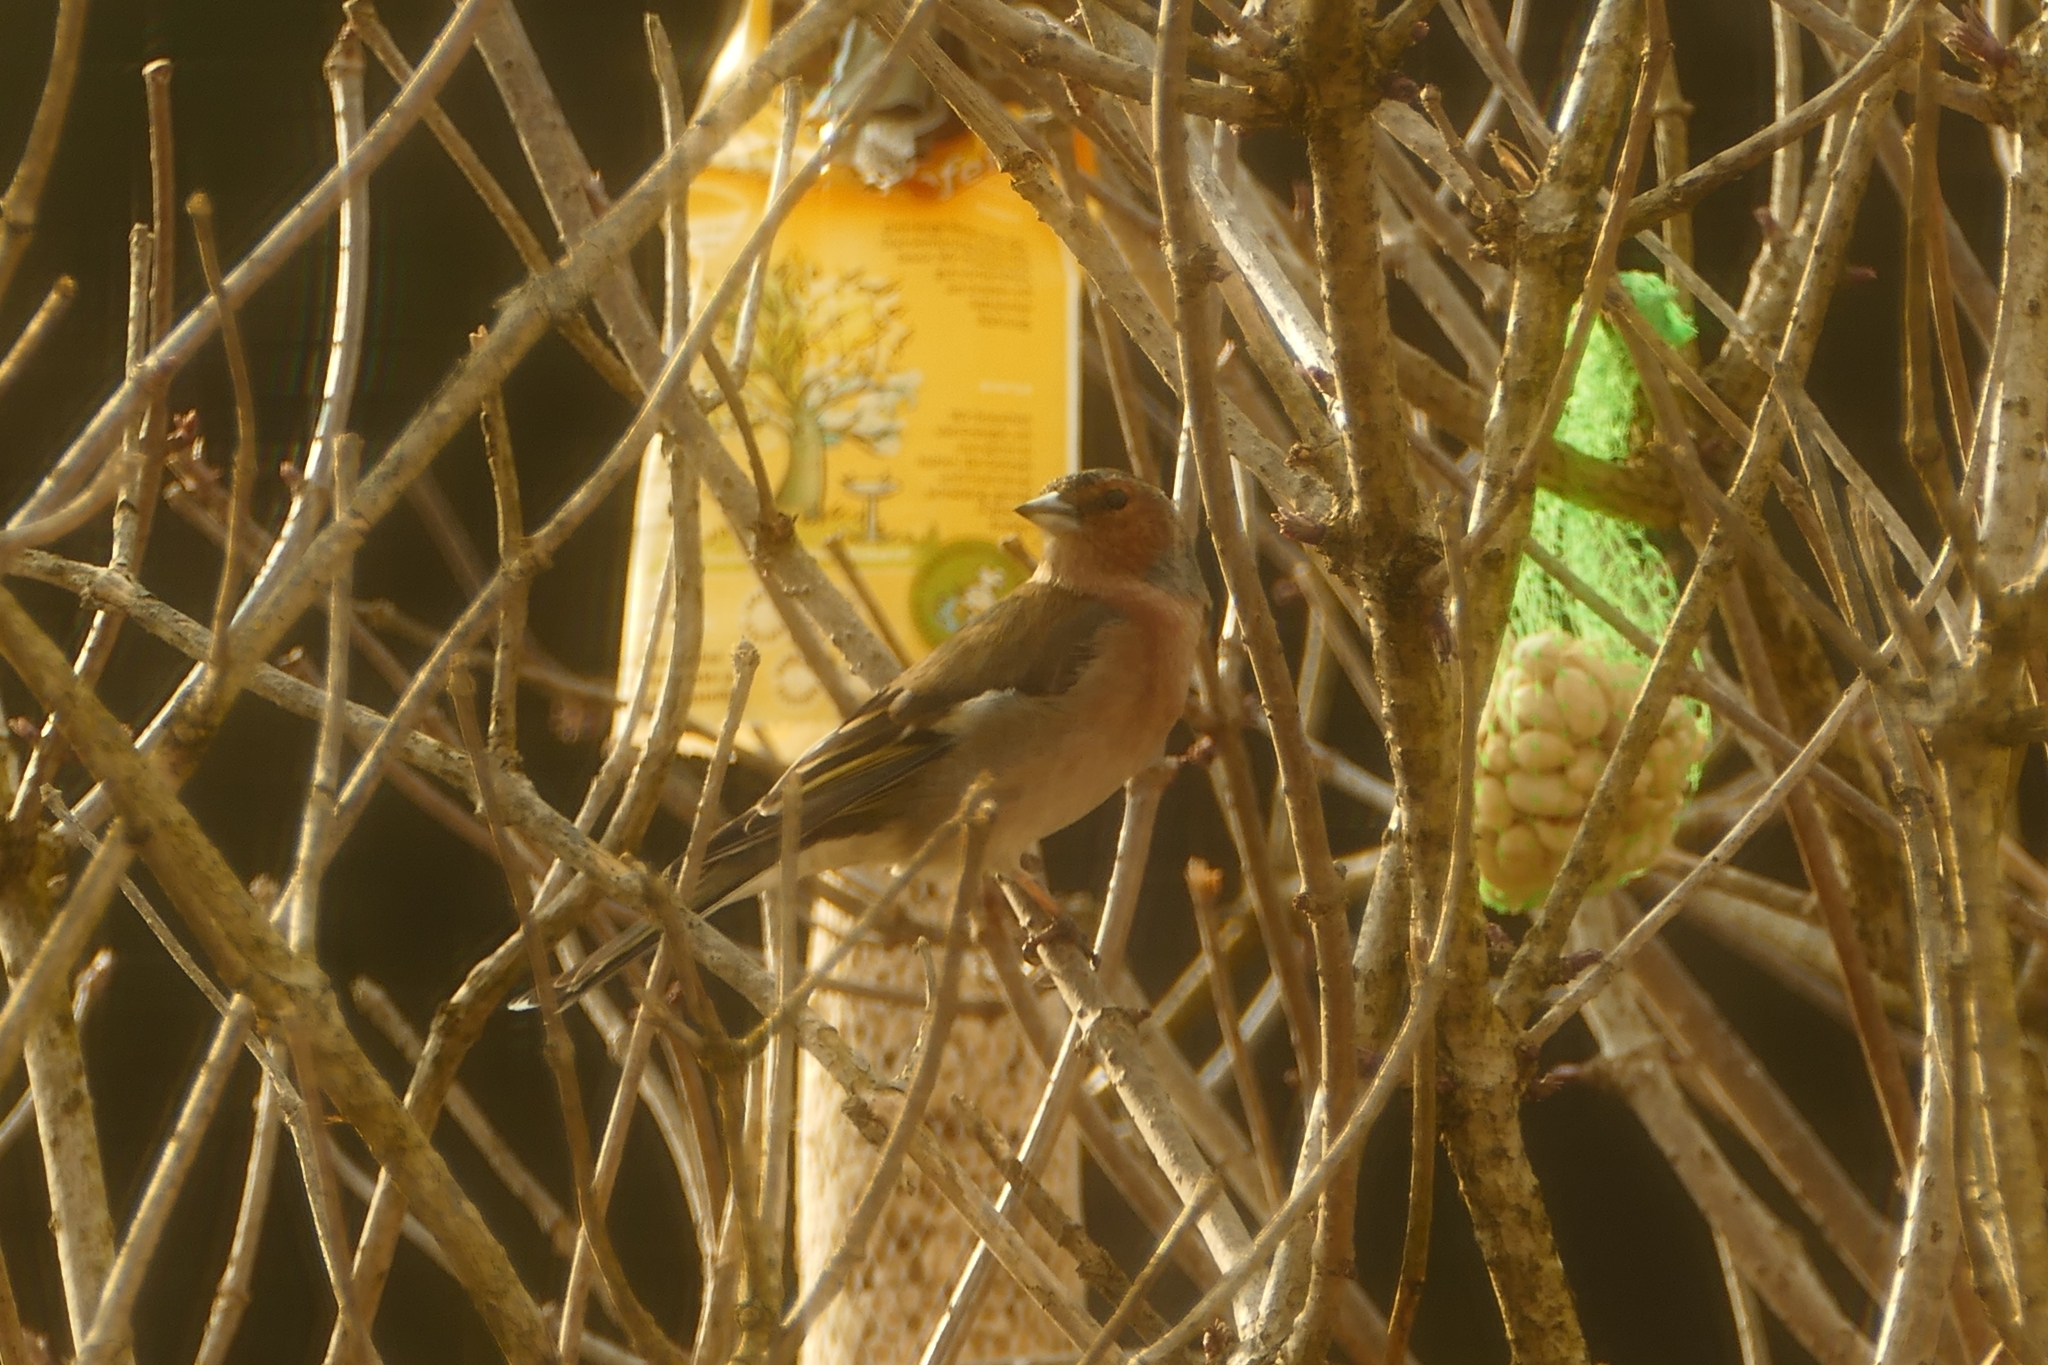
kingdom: Animalia
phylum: Chordata
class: Aves
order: Passeriformes
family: Fringillidae
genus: Fringilla
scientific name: Fringilla coelebs
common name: Common chaffinch
